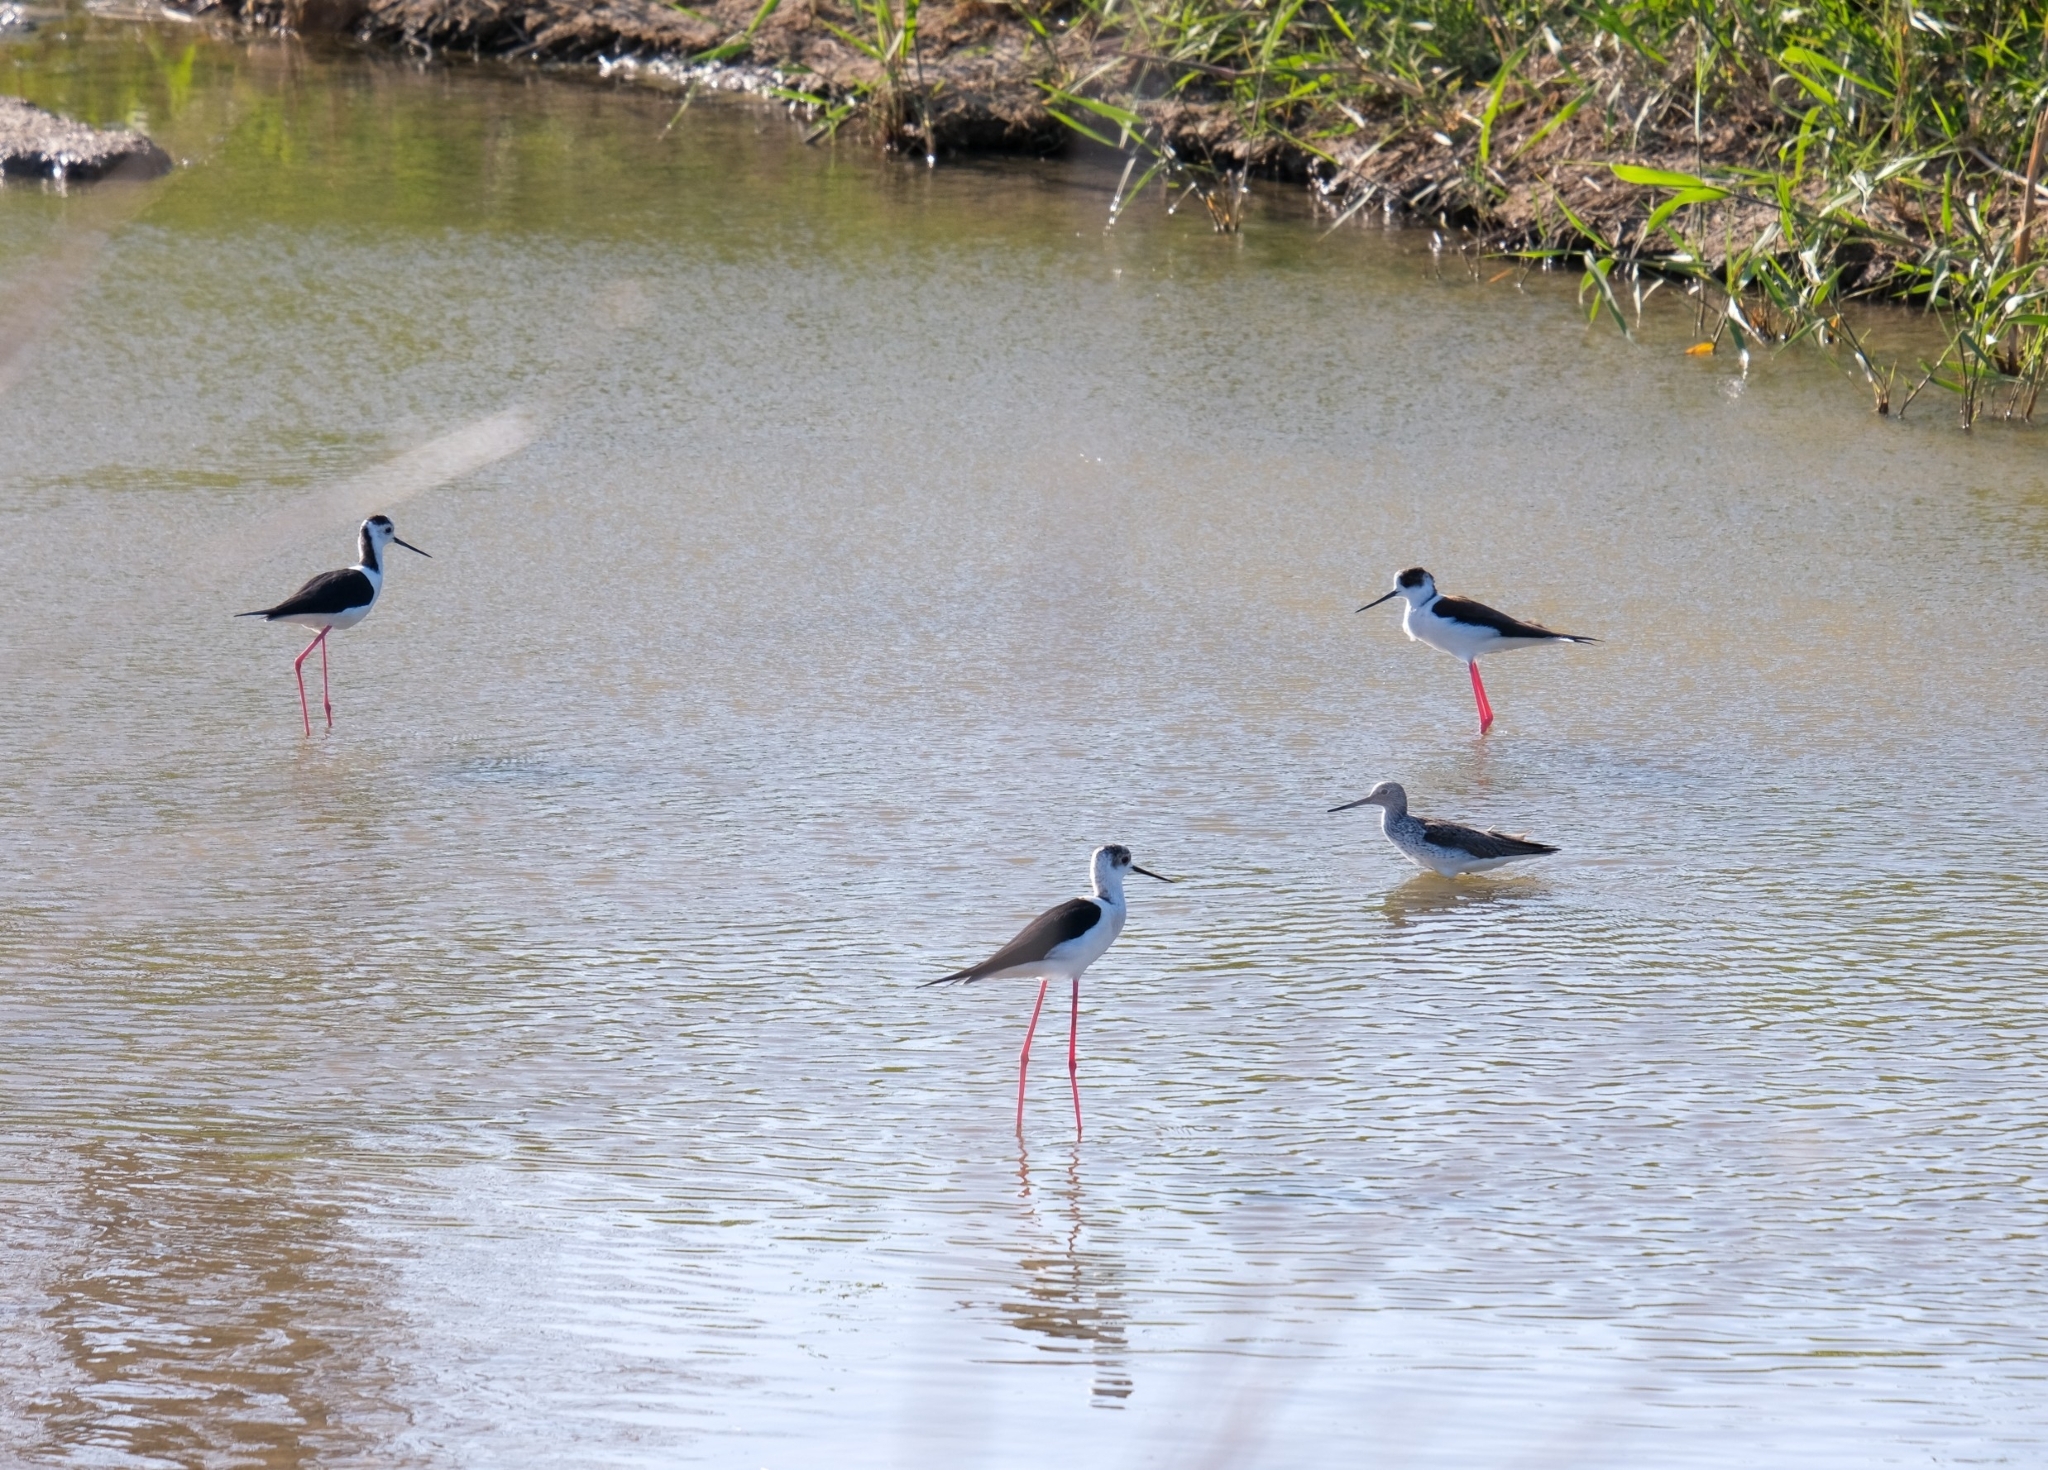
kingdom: Animalia
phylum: Chordata
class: Aves
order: Charadriiformes
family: Recurvirostridae
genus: Himantopus
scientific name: Himantopus himantopus
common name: Black-winged stilt
